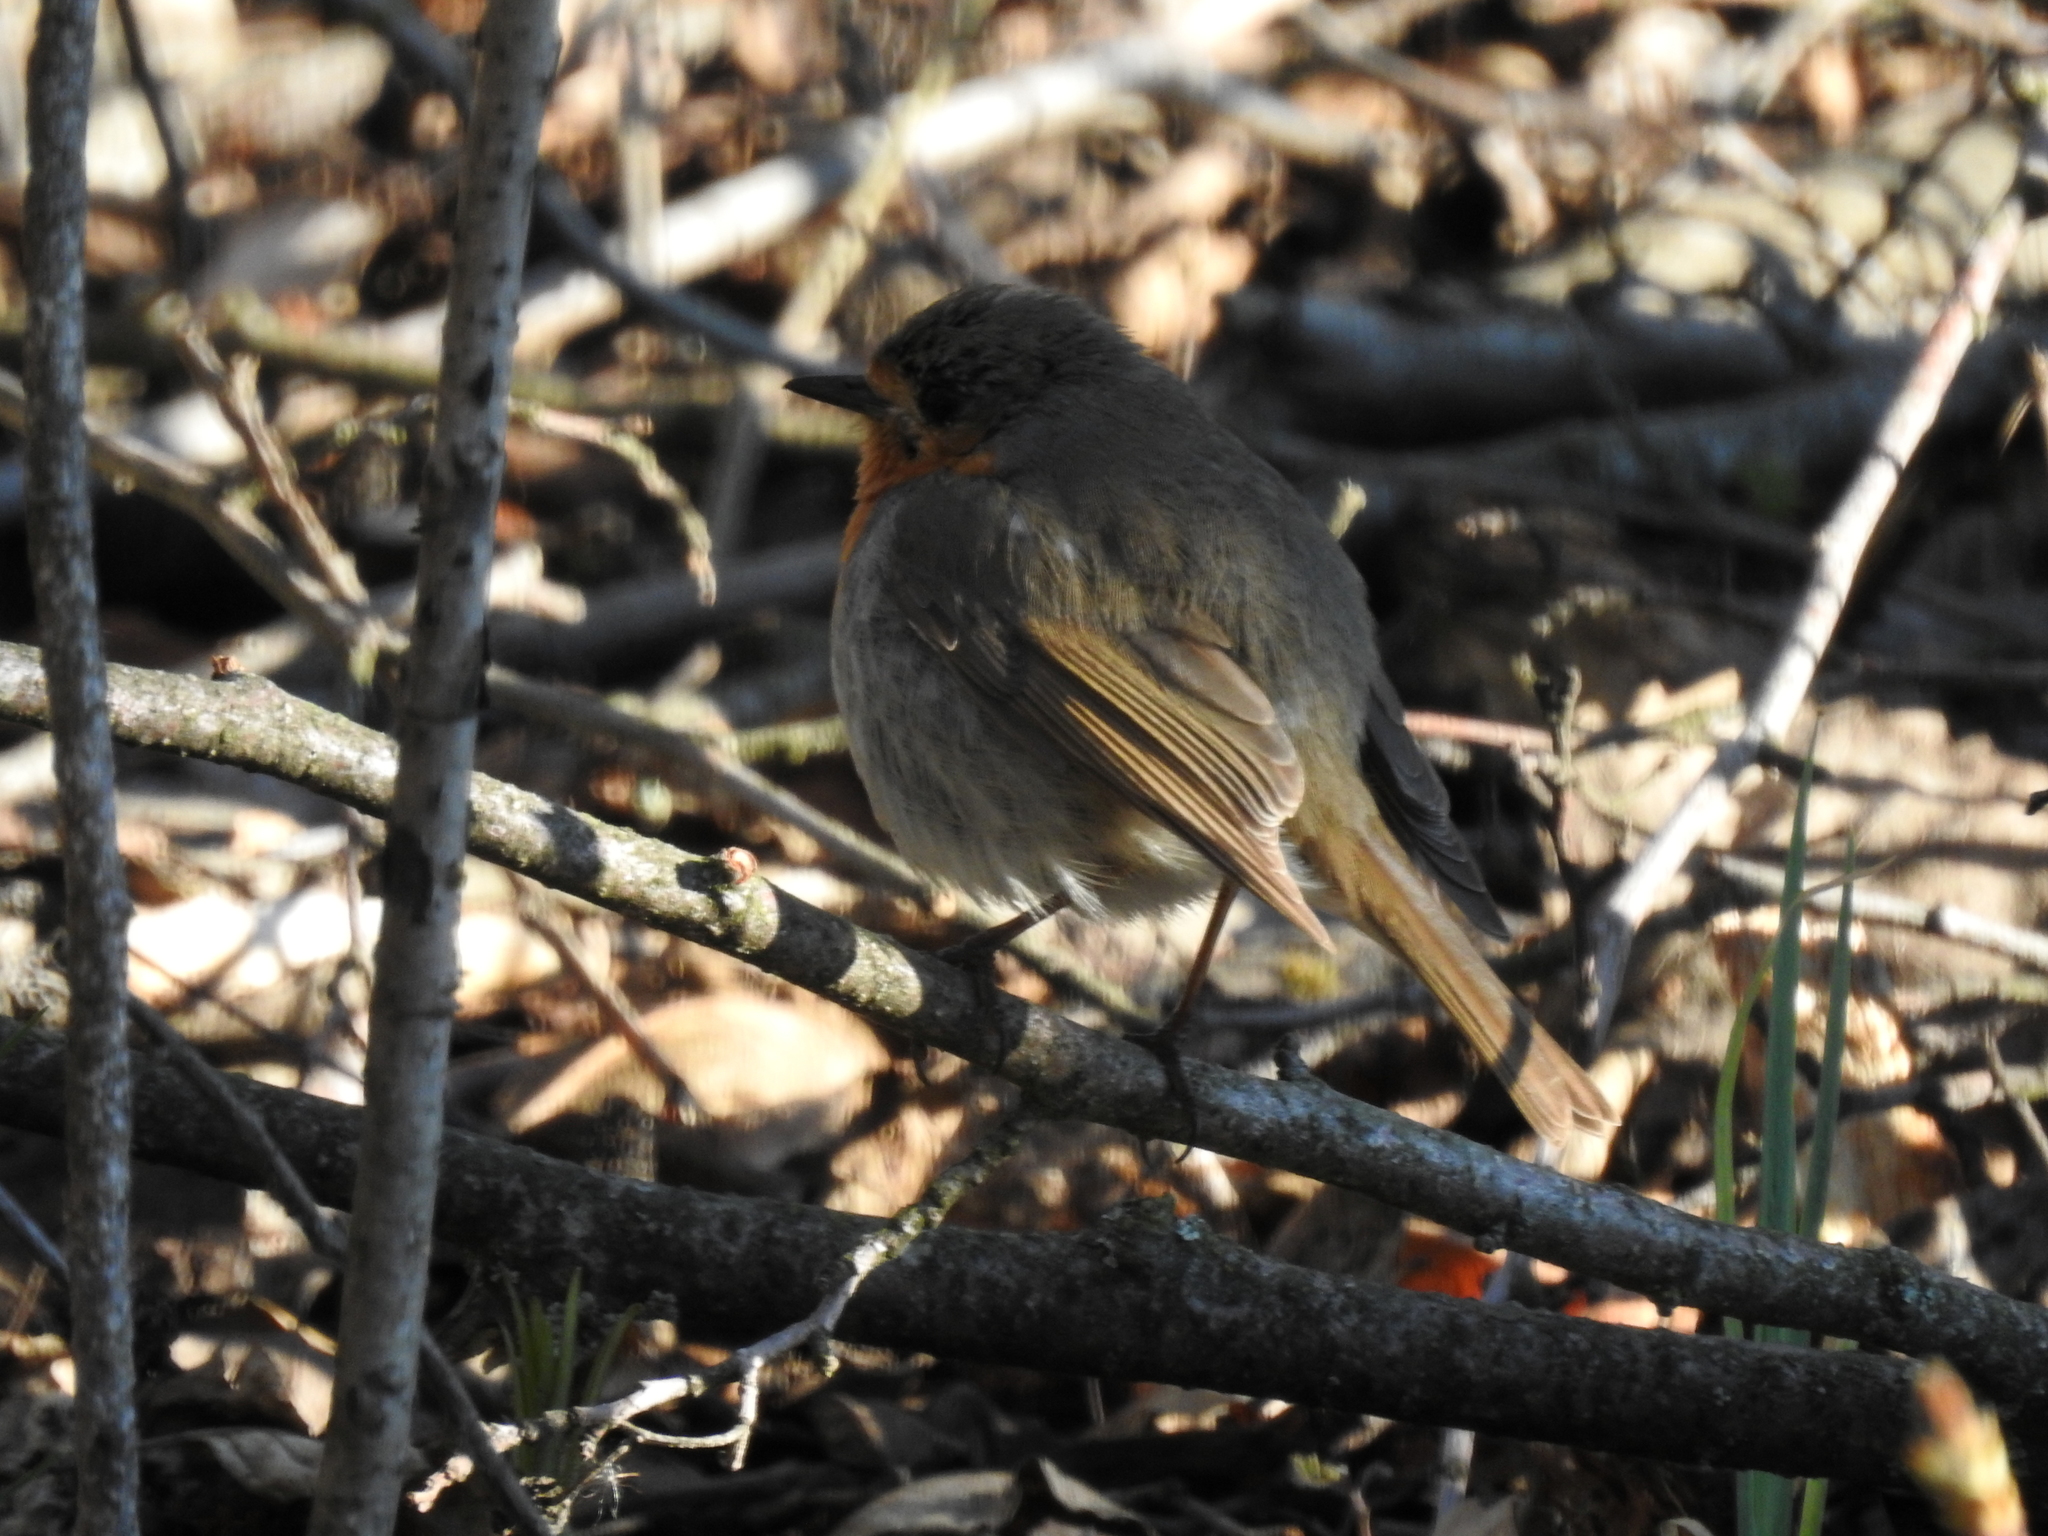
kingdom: Animalia
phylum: Chordata
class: Aves
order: Passeriformes
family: Muscicapidae
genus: Erithacus
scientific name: Erithacus rubecula
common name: European robin
